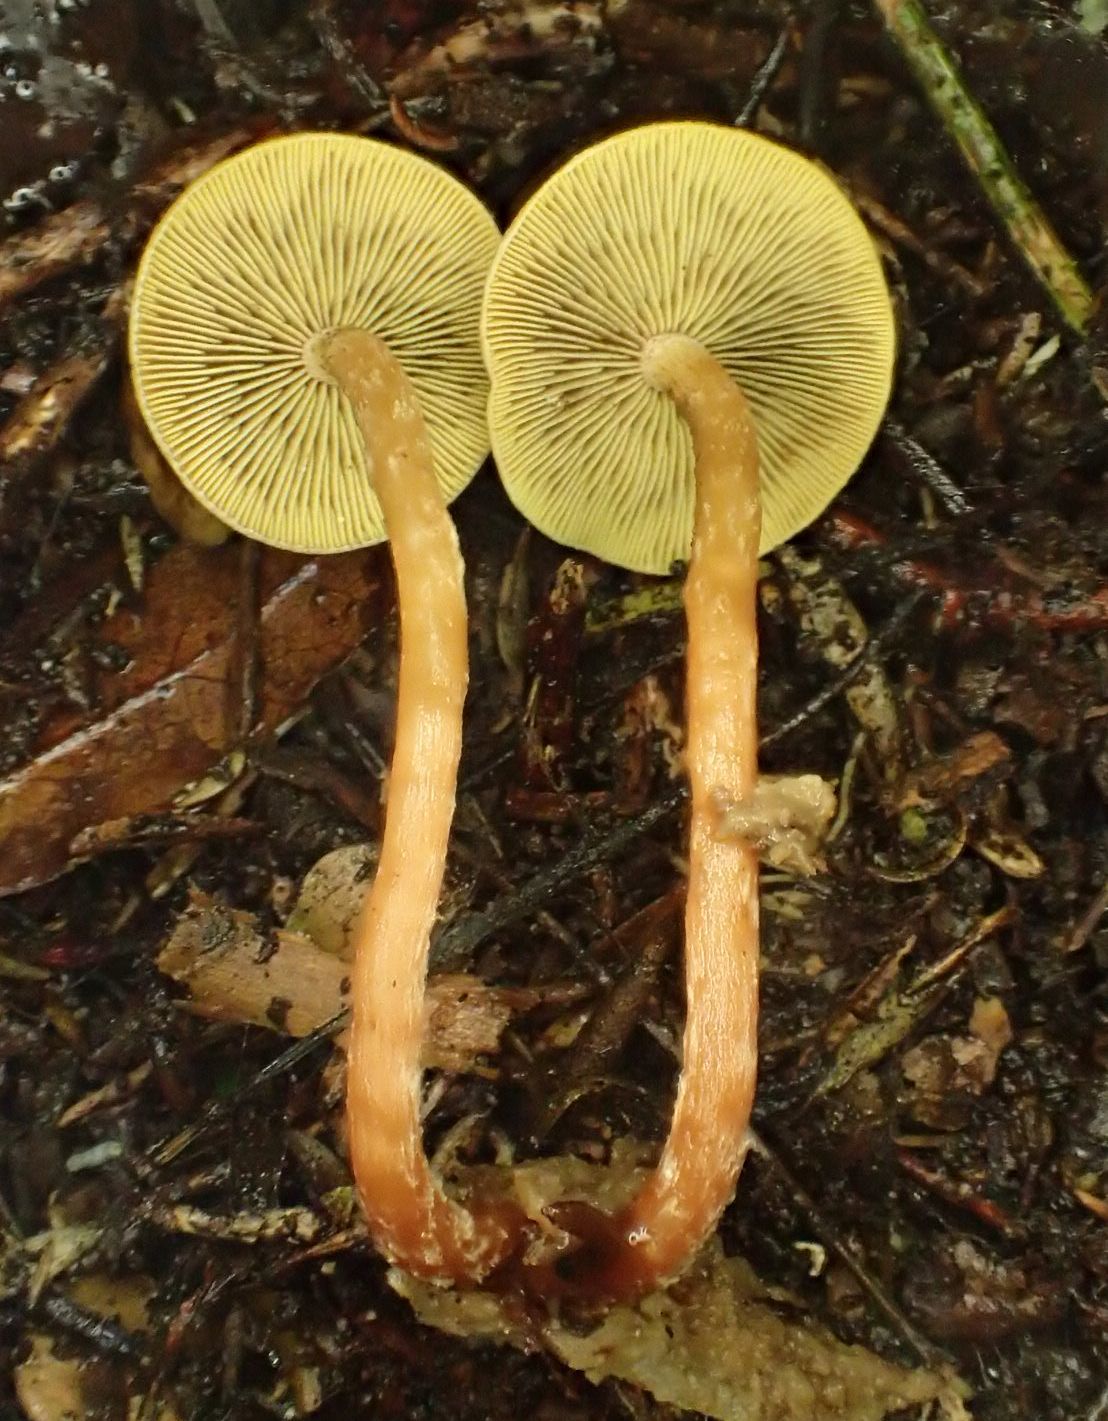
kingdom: Fungi
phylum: Basidiomycota
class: Agaricomycetes
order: Agaricales
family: Strophariaceae
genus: Hypholoma
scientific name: Hypholoma acutum
